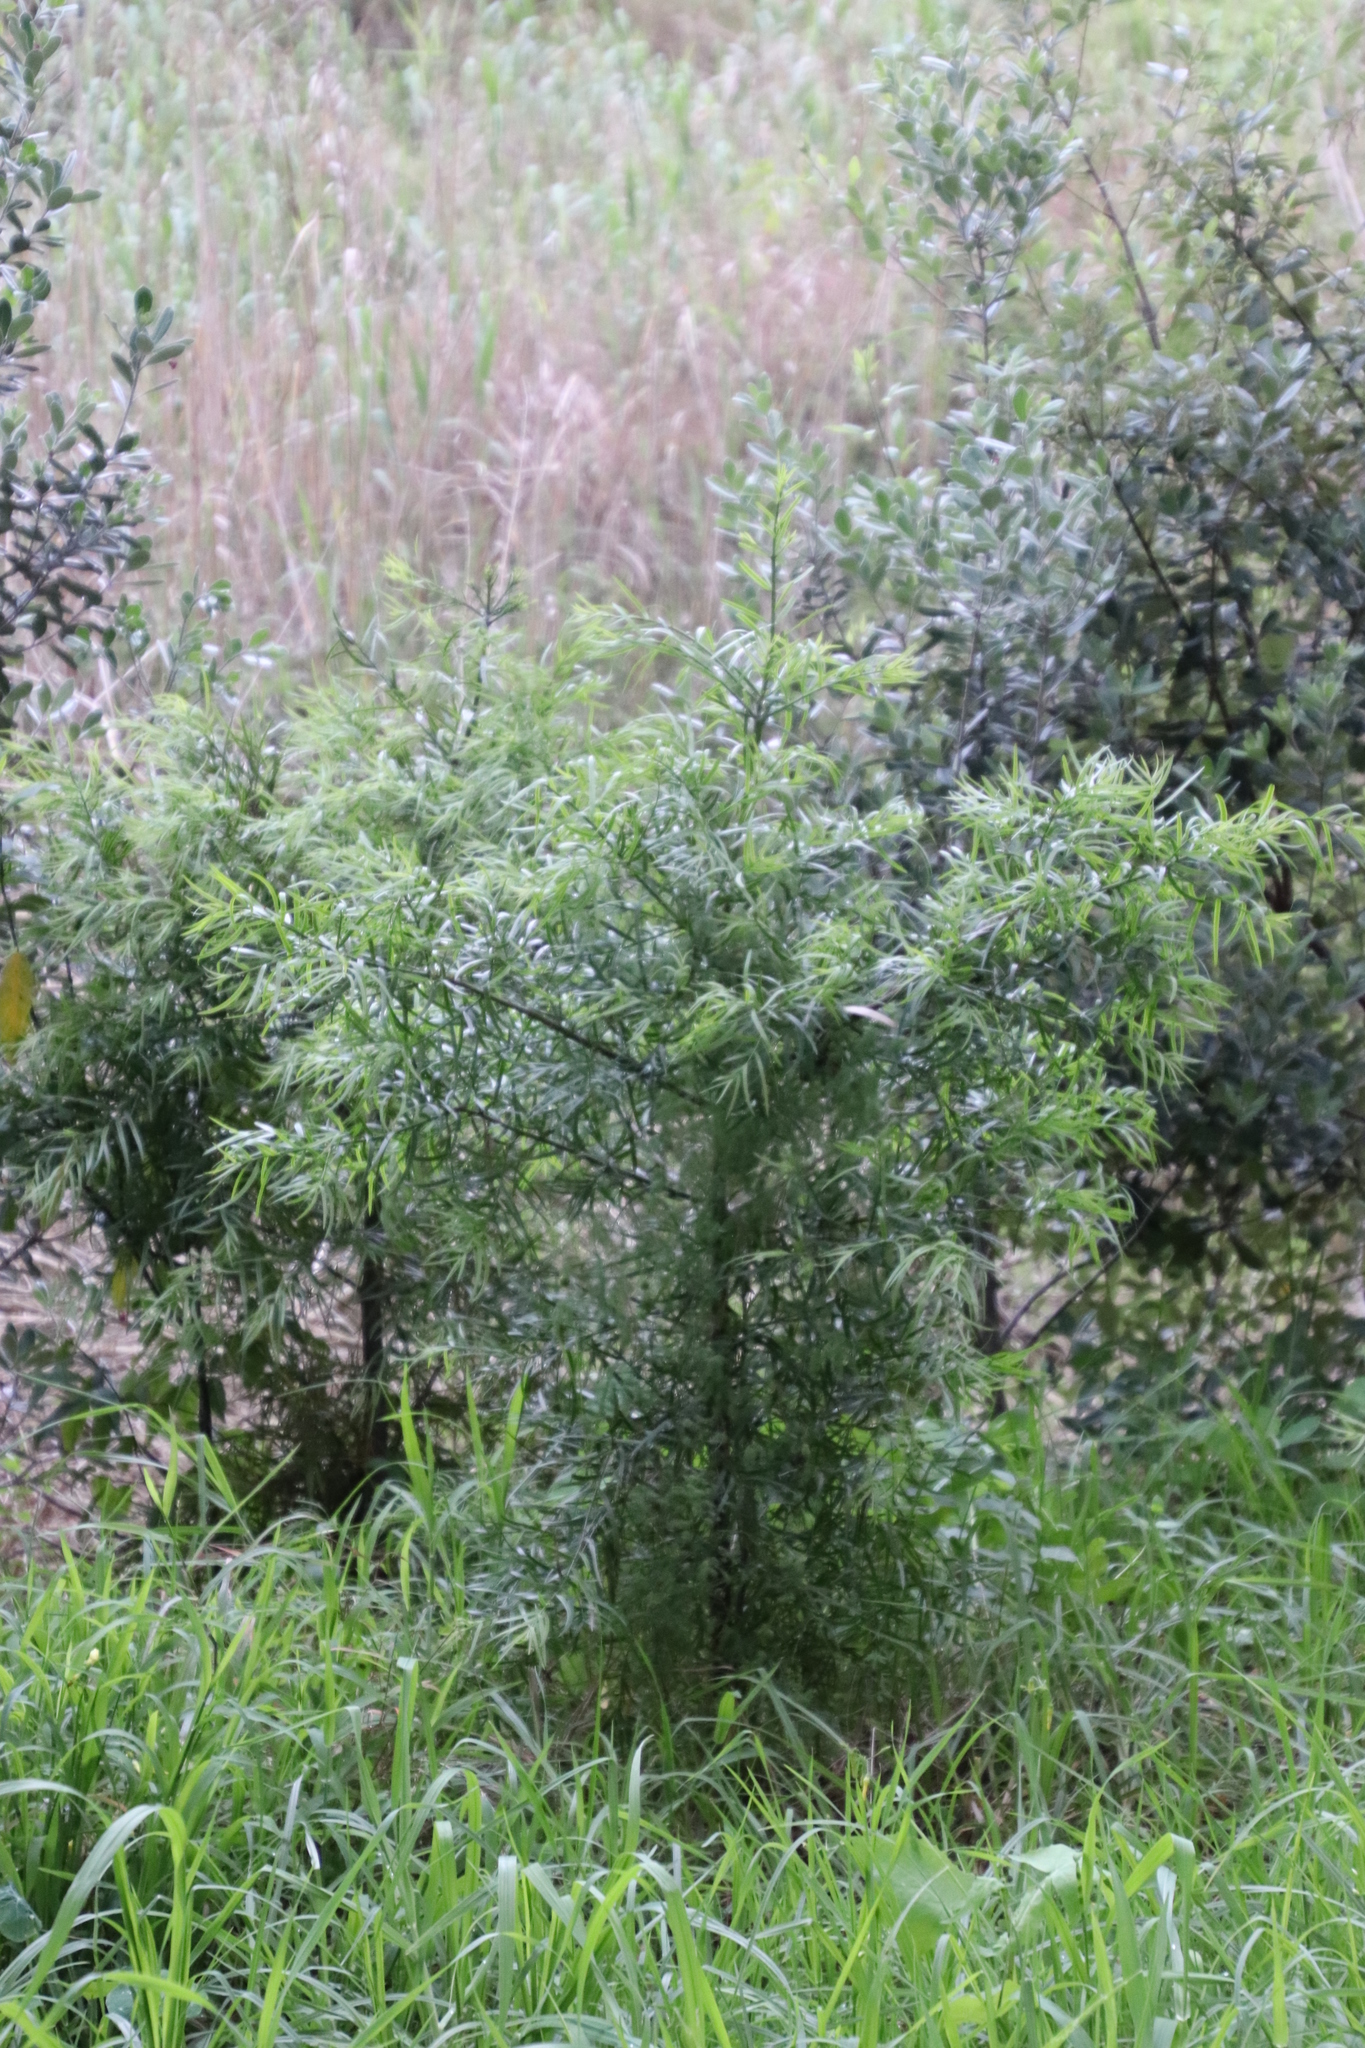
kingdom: Plantae
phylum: Tracheophyta
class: Pinopsida
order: Pinales
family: Podocarpaceae
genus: Afrocarpus
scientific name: Afrocarpus falcatus
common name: Bastard yellowwood
